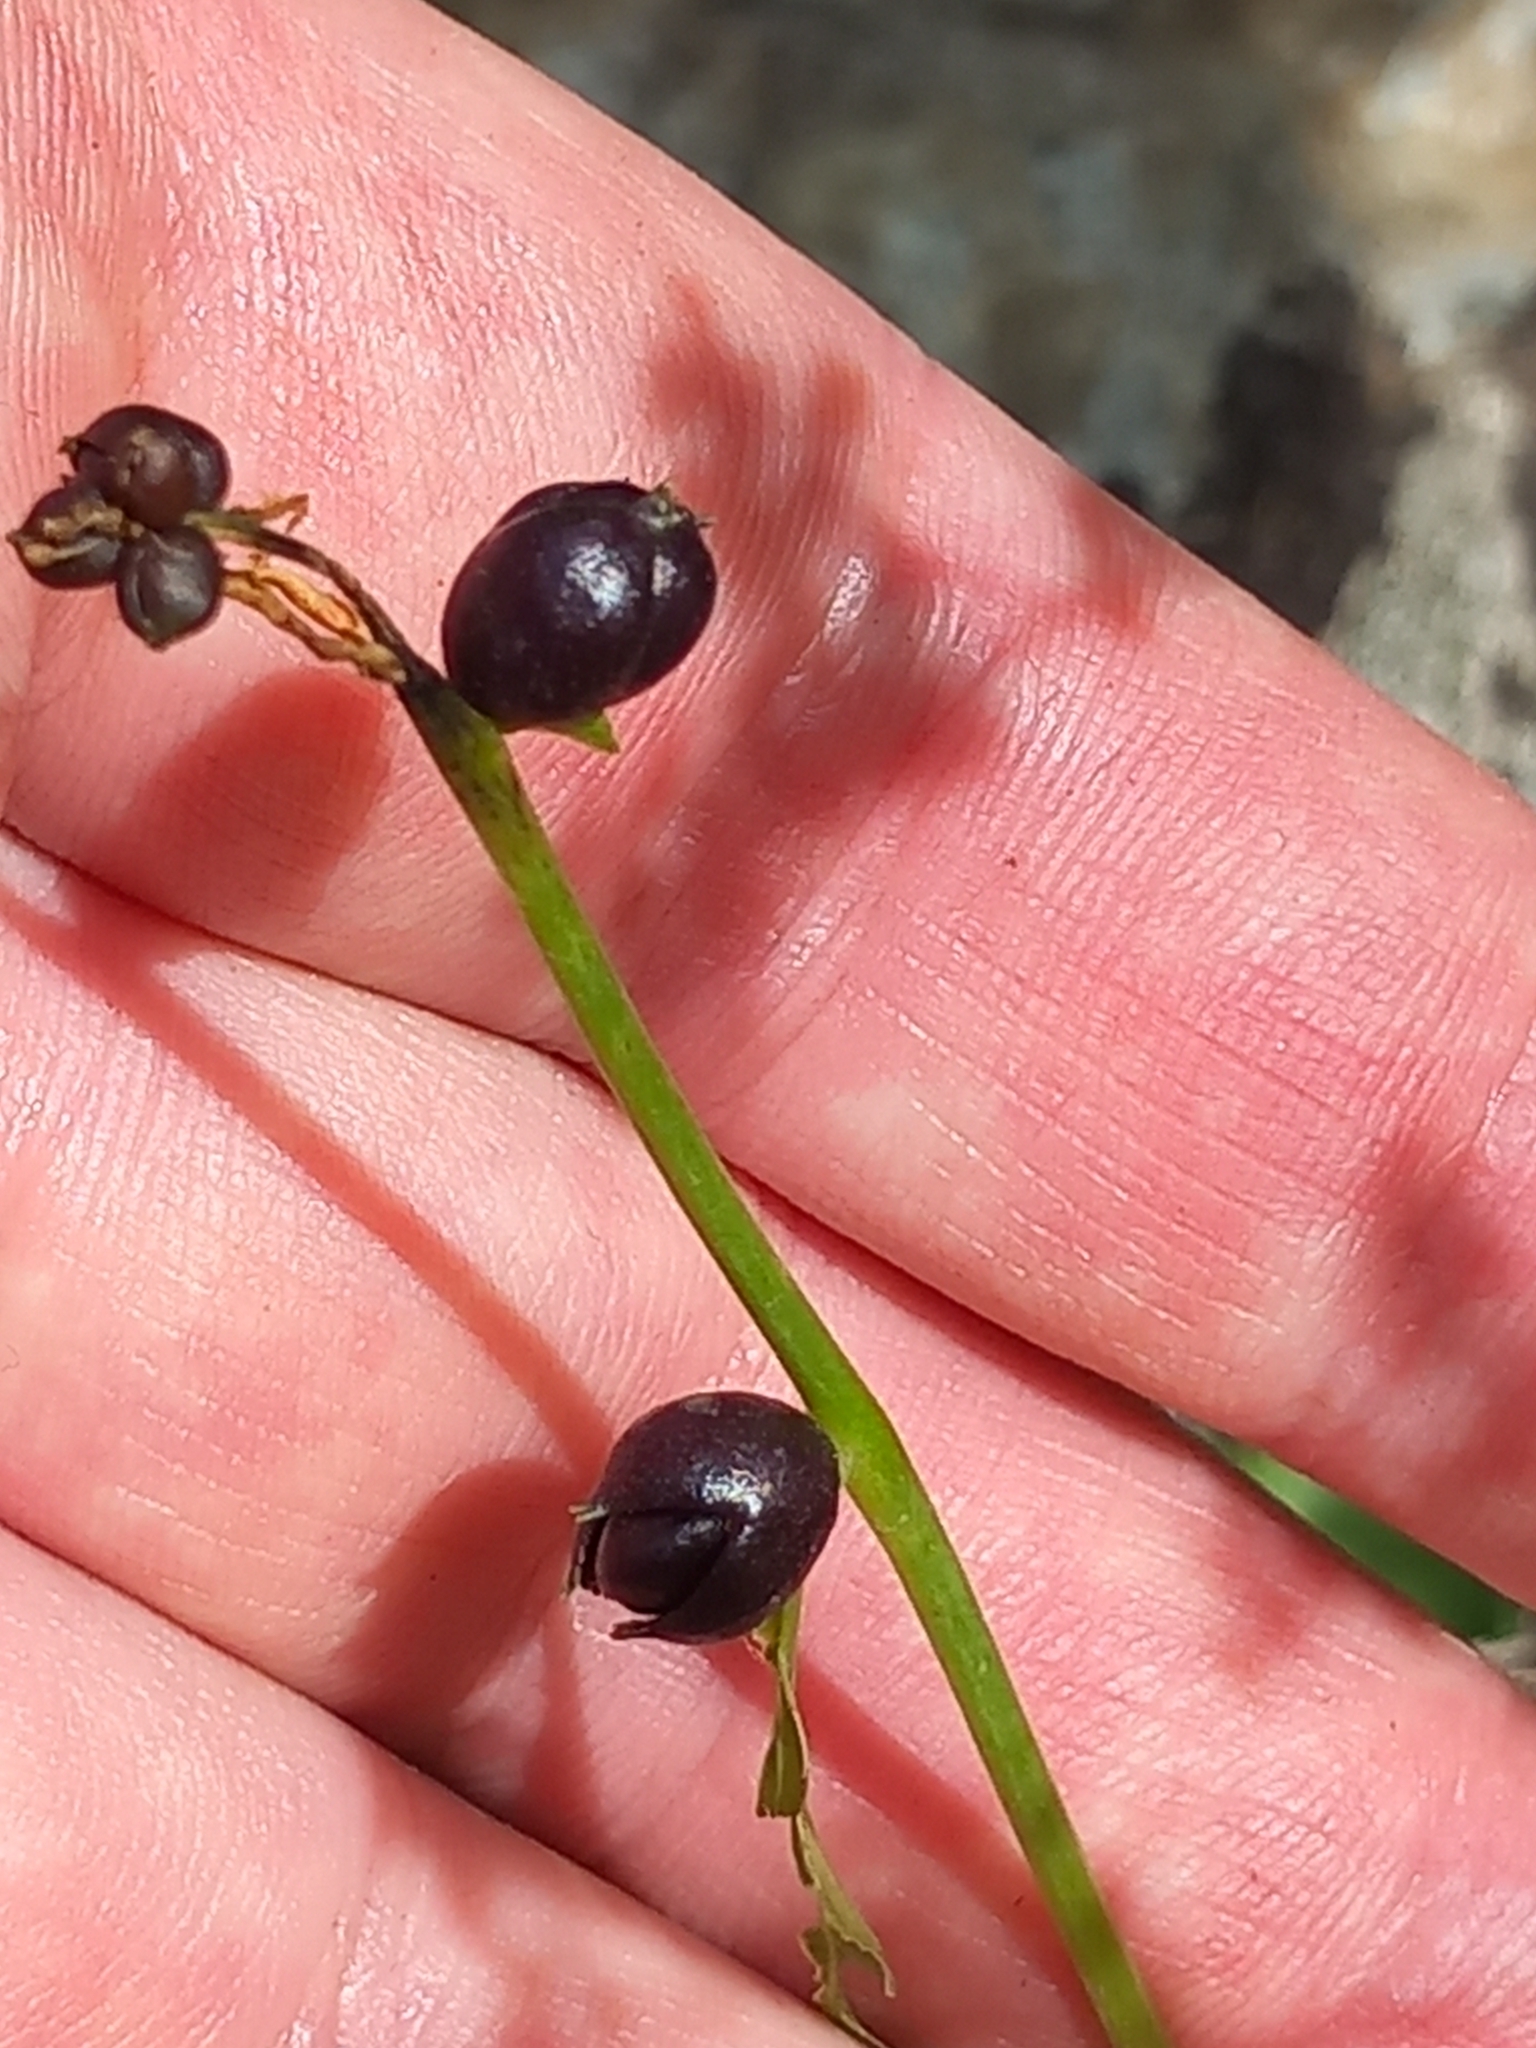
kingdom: Plantae
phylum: Tracheophyta
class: Magnoliopsida
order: Brassicales
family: Brassicaceae
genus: Cardamine
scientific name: Cardamine bulbifera
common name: Coralroot bittercress
